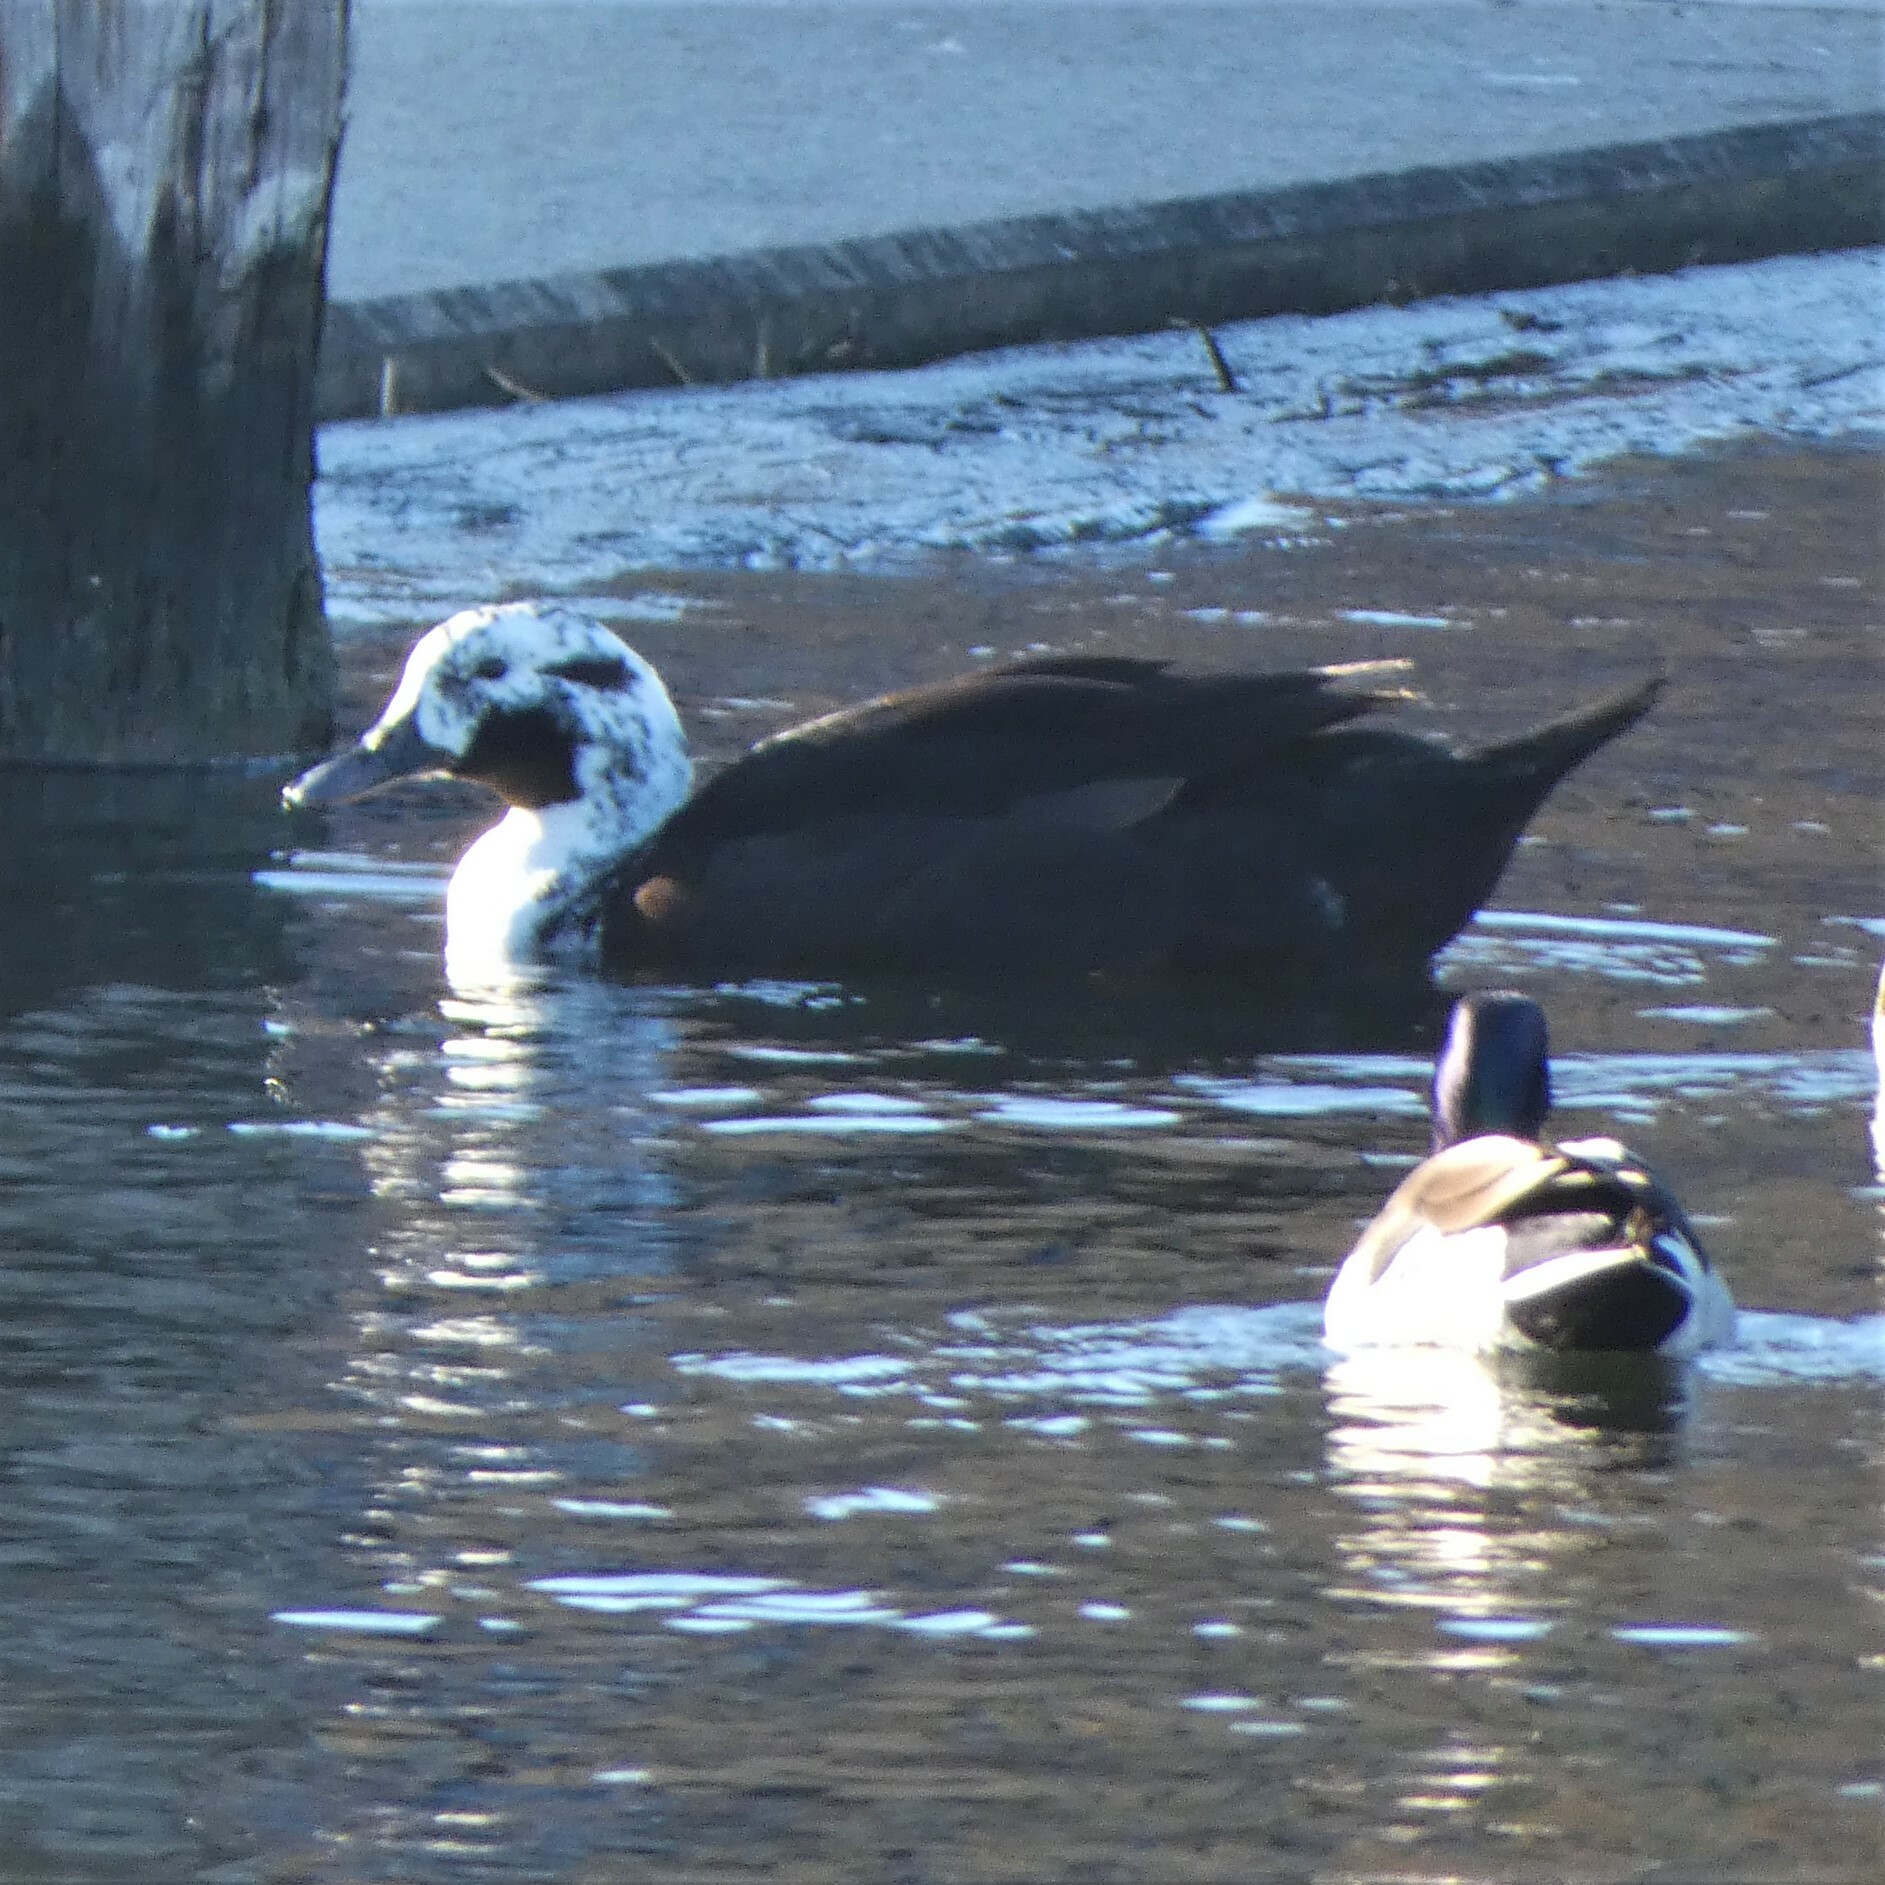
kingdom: Animalia
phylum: Chordata
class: Aves
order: Anseriformes
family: Anatidae
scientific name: Anatidae
